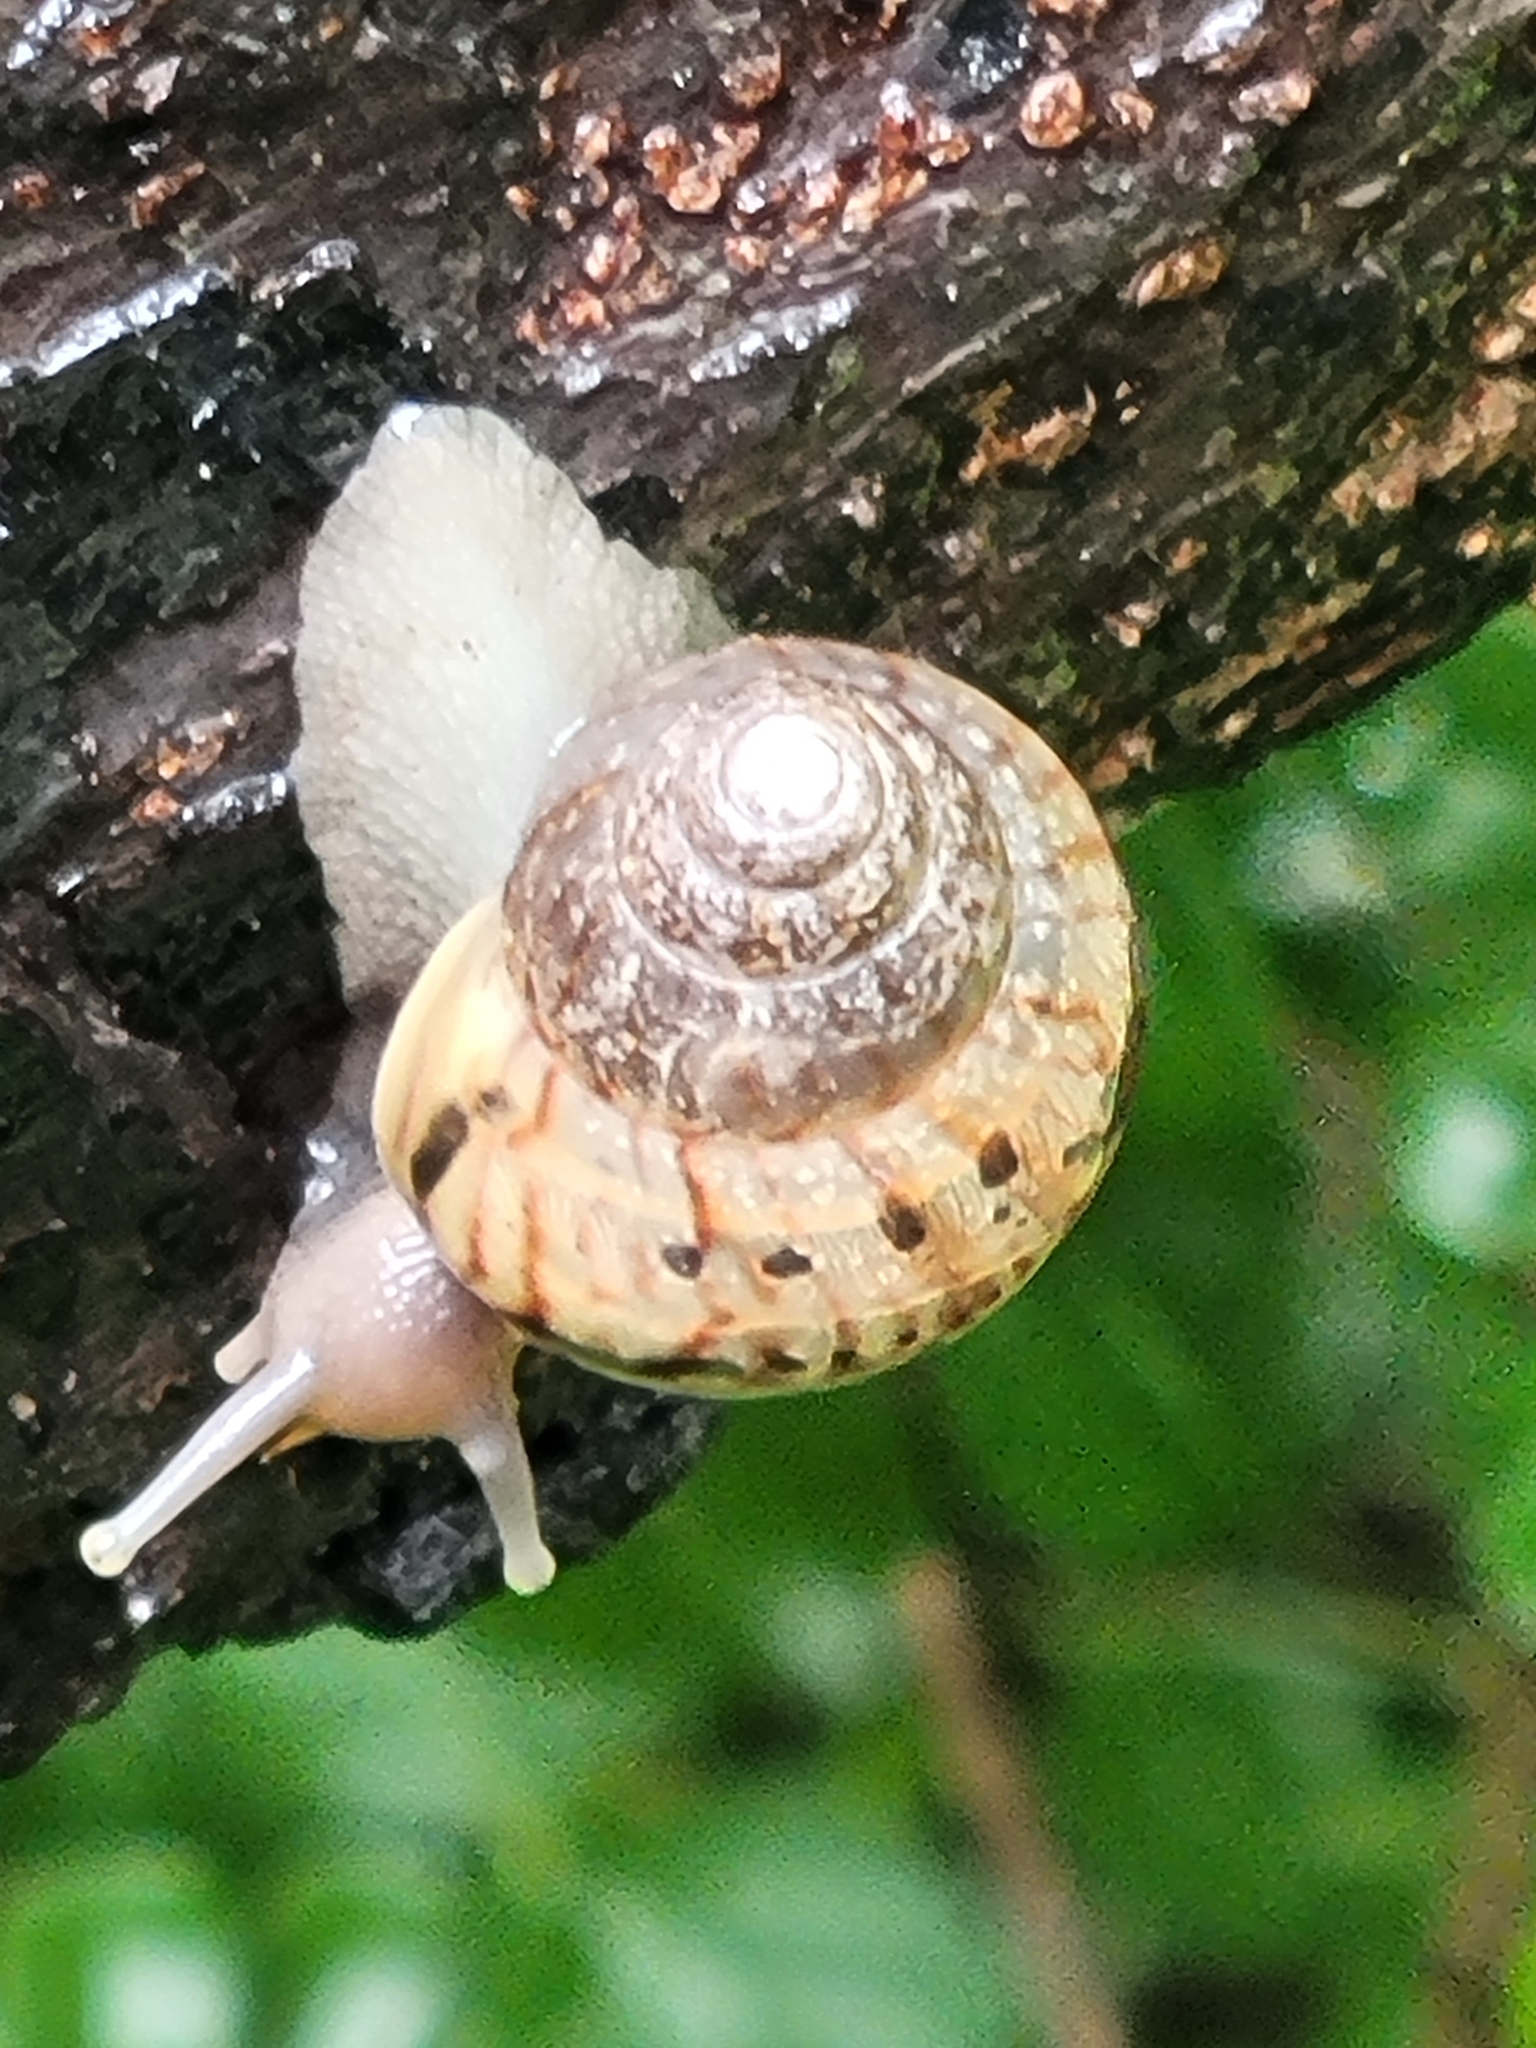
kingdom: Animalia
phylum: Mollusca
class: Gastropoda
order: Stylommatophora
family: Achatinidae
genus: Lissachatina
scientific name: Lissachatina fulica
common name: Giant african snail
